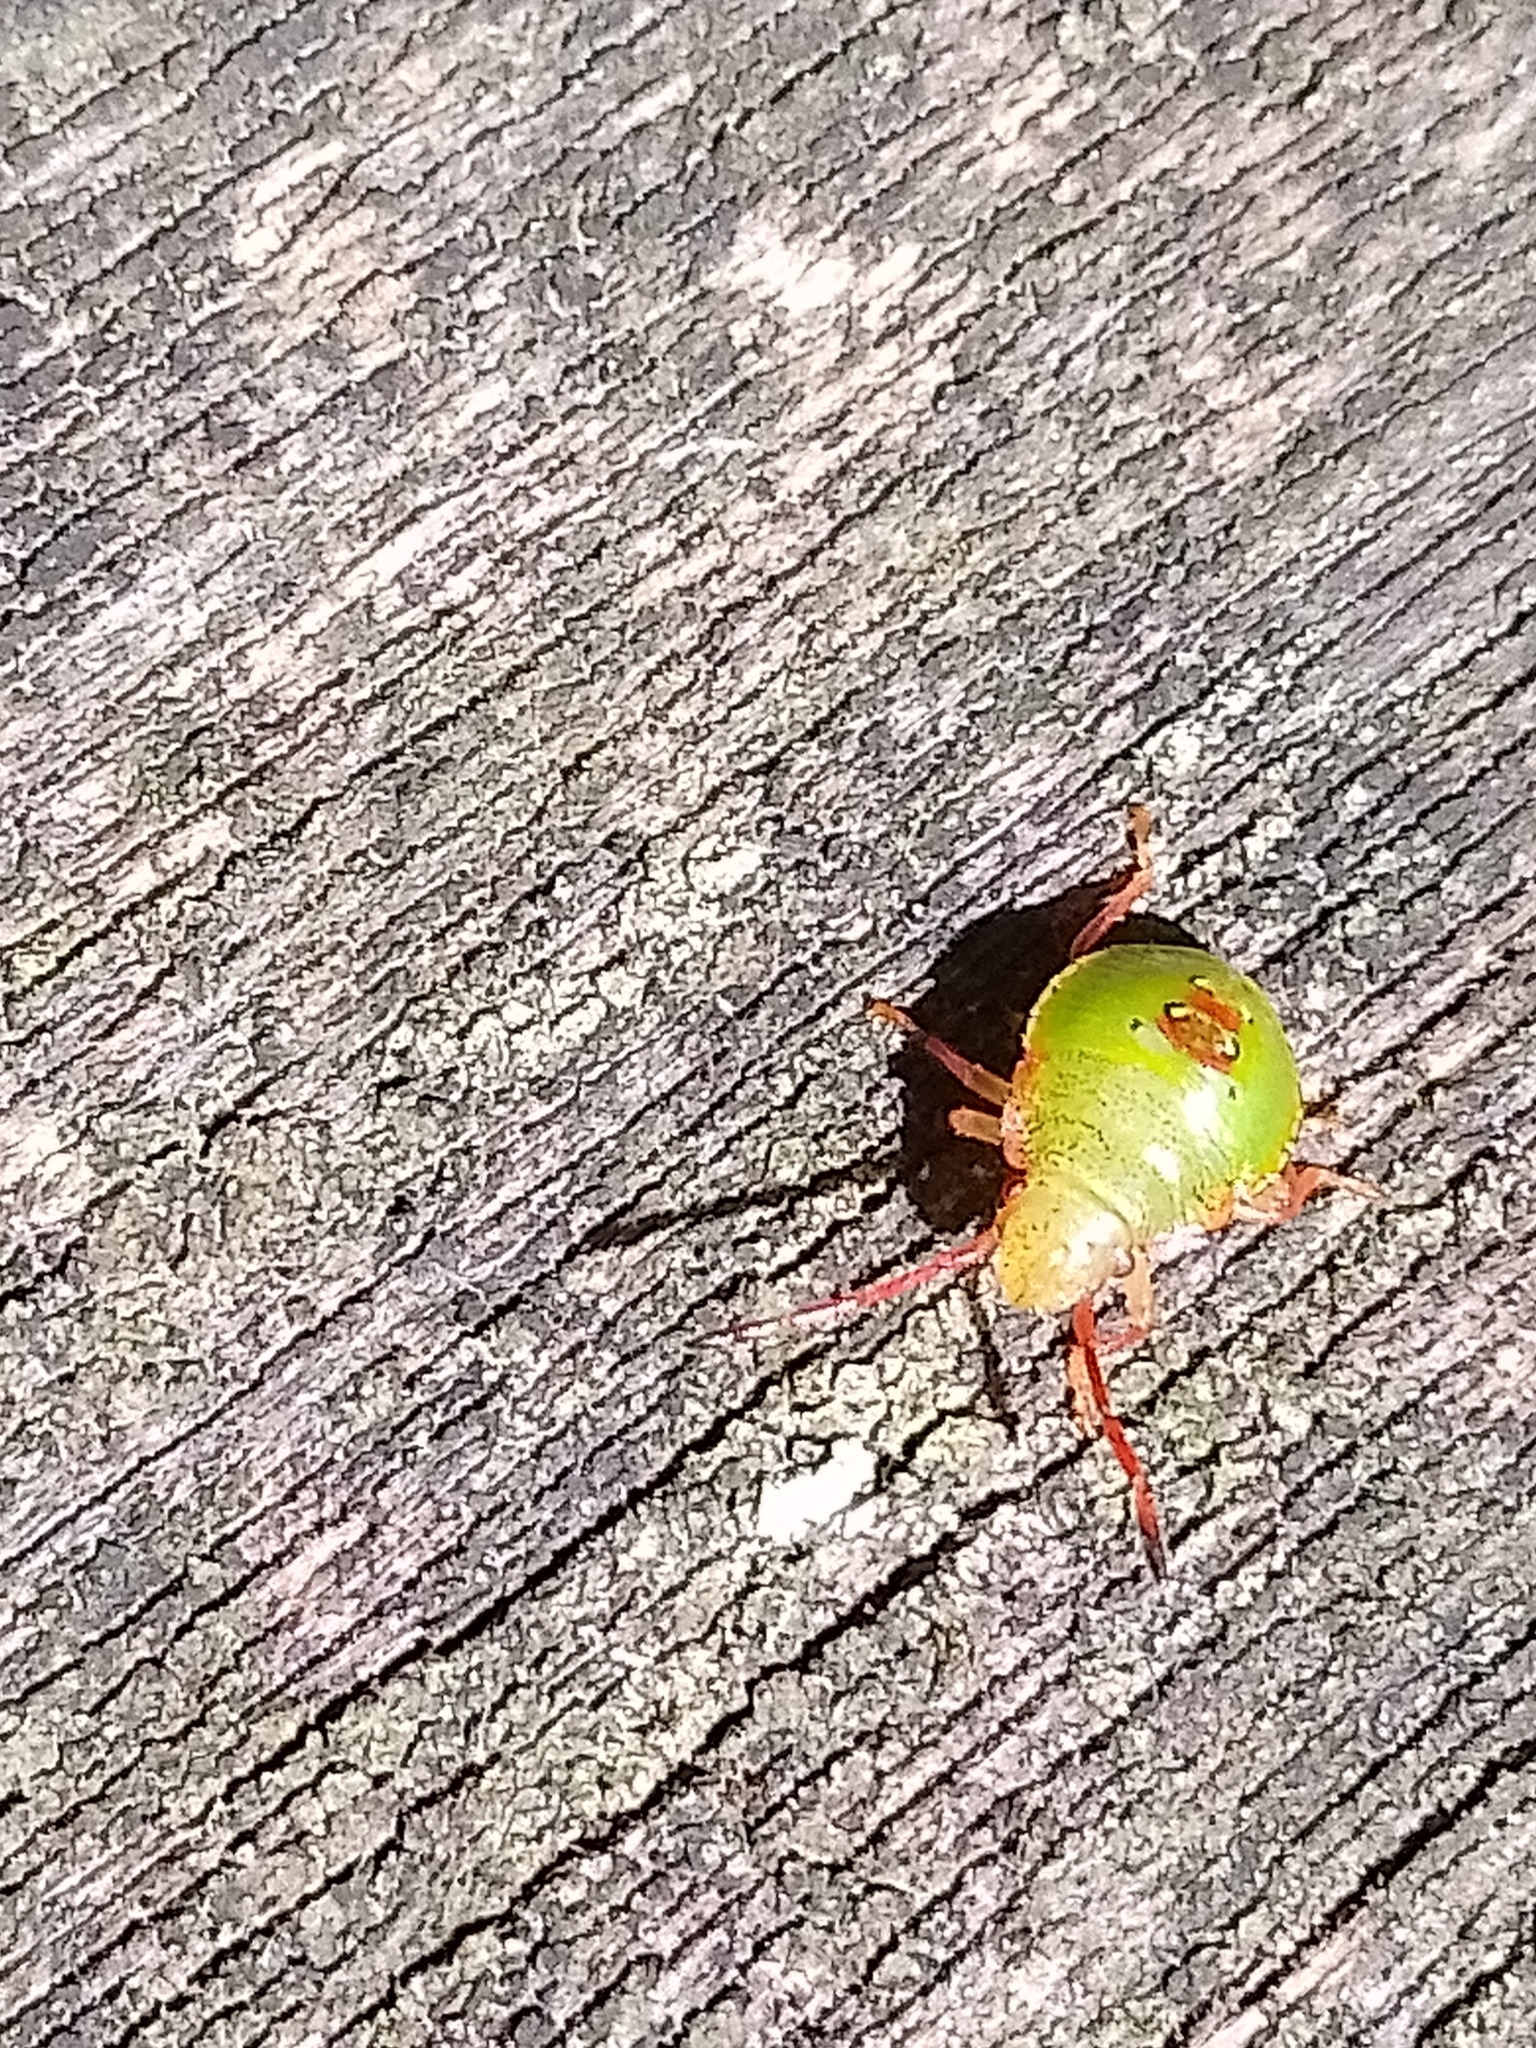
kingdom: Animalia
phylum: Arthropoda
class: Insecta
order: Hemiptera
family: Acanthosomatidae
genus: Acanthosoma
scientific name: Acanthosoma haemorrhoidale
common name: Hawthorn shieldbug
